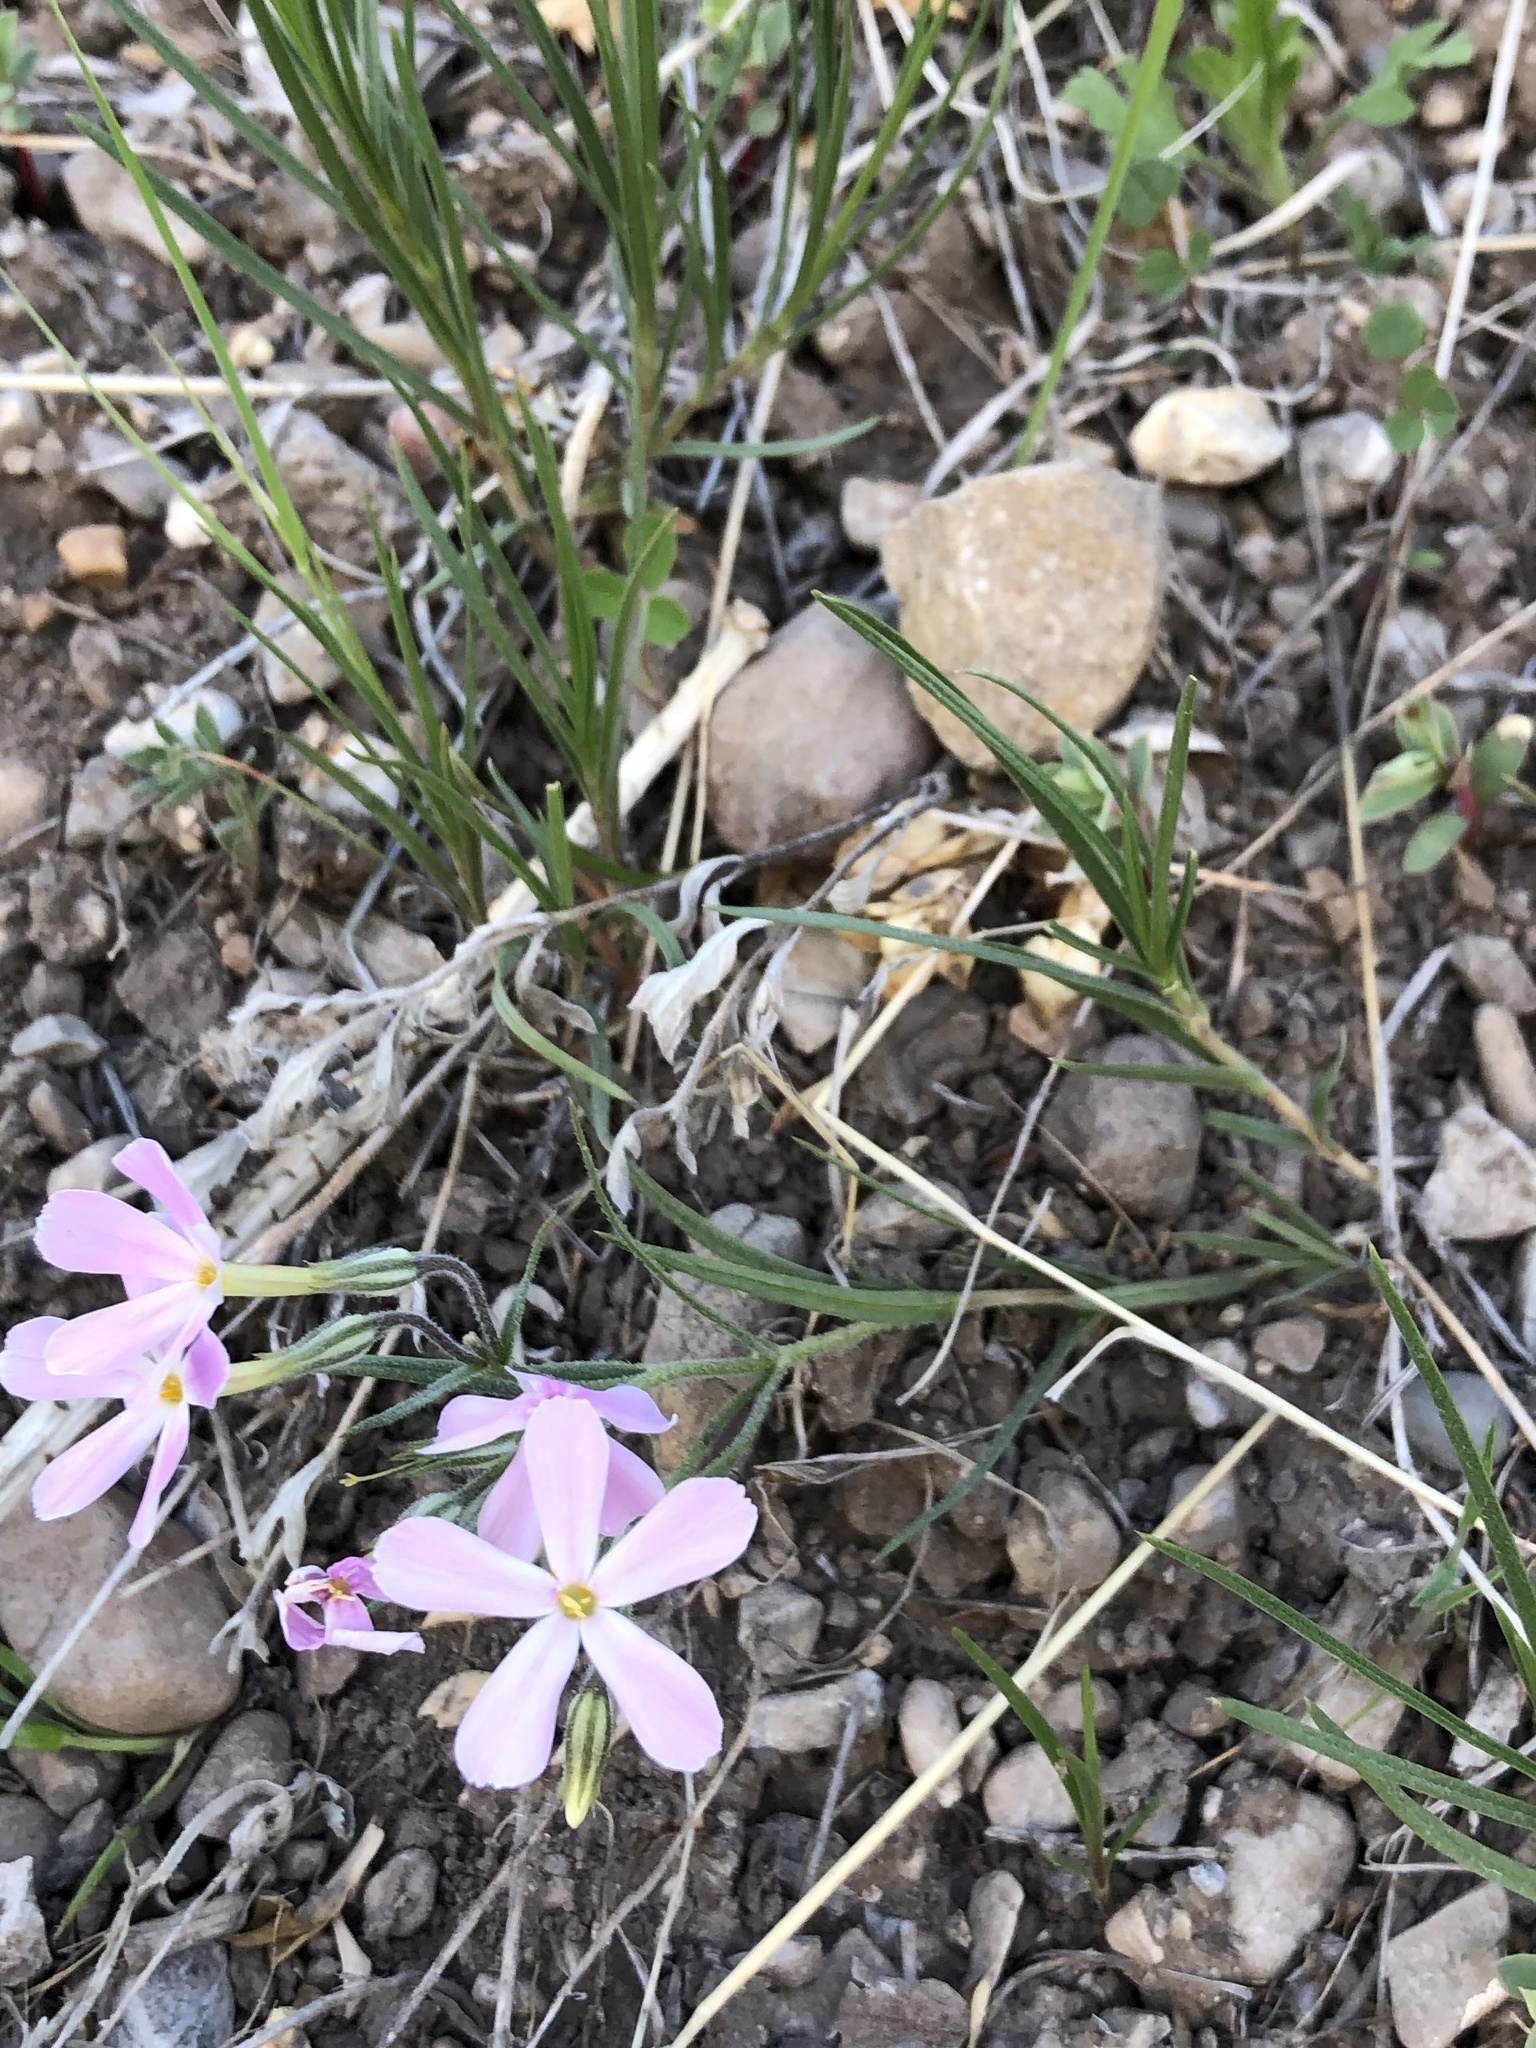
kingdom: Plantae
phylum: Tracheophyta
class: Magnoliopsida
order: Ericales
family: Polemoniaceae
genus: Phlox
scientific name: Phlox longifolia
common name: Longleaf phlox
